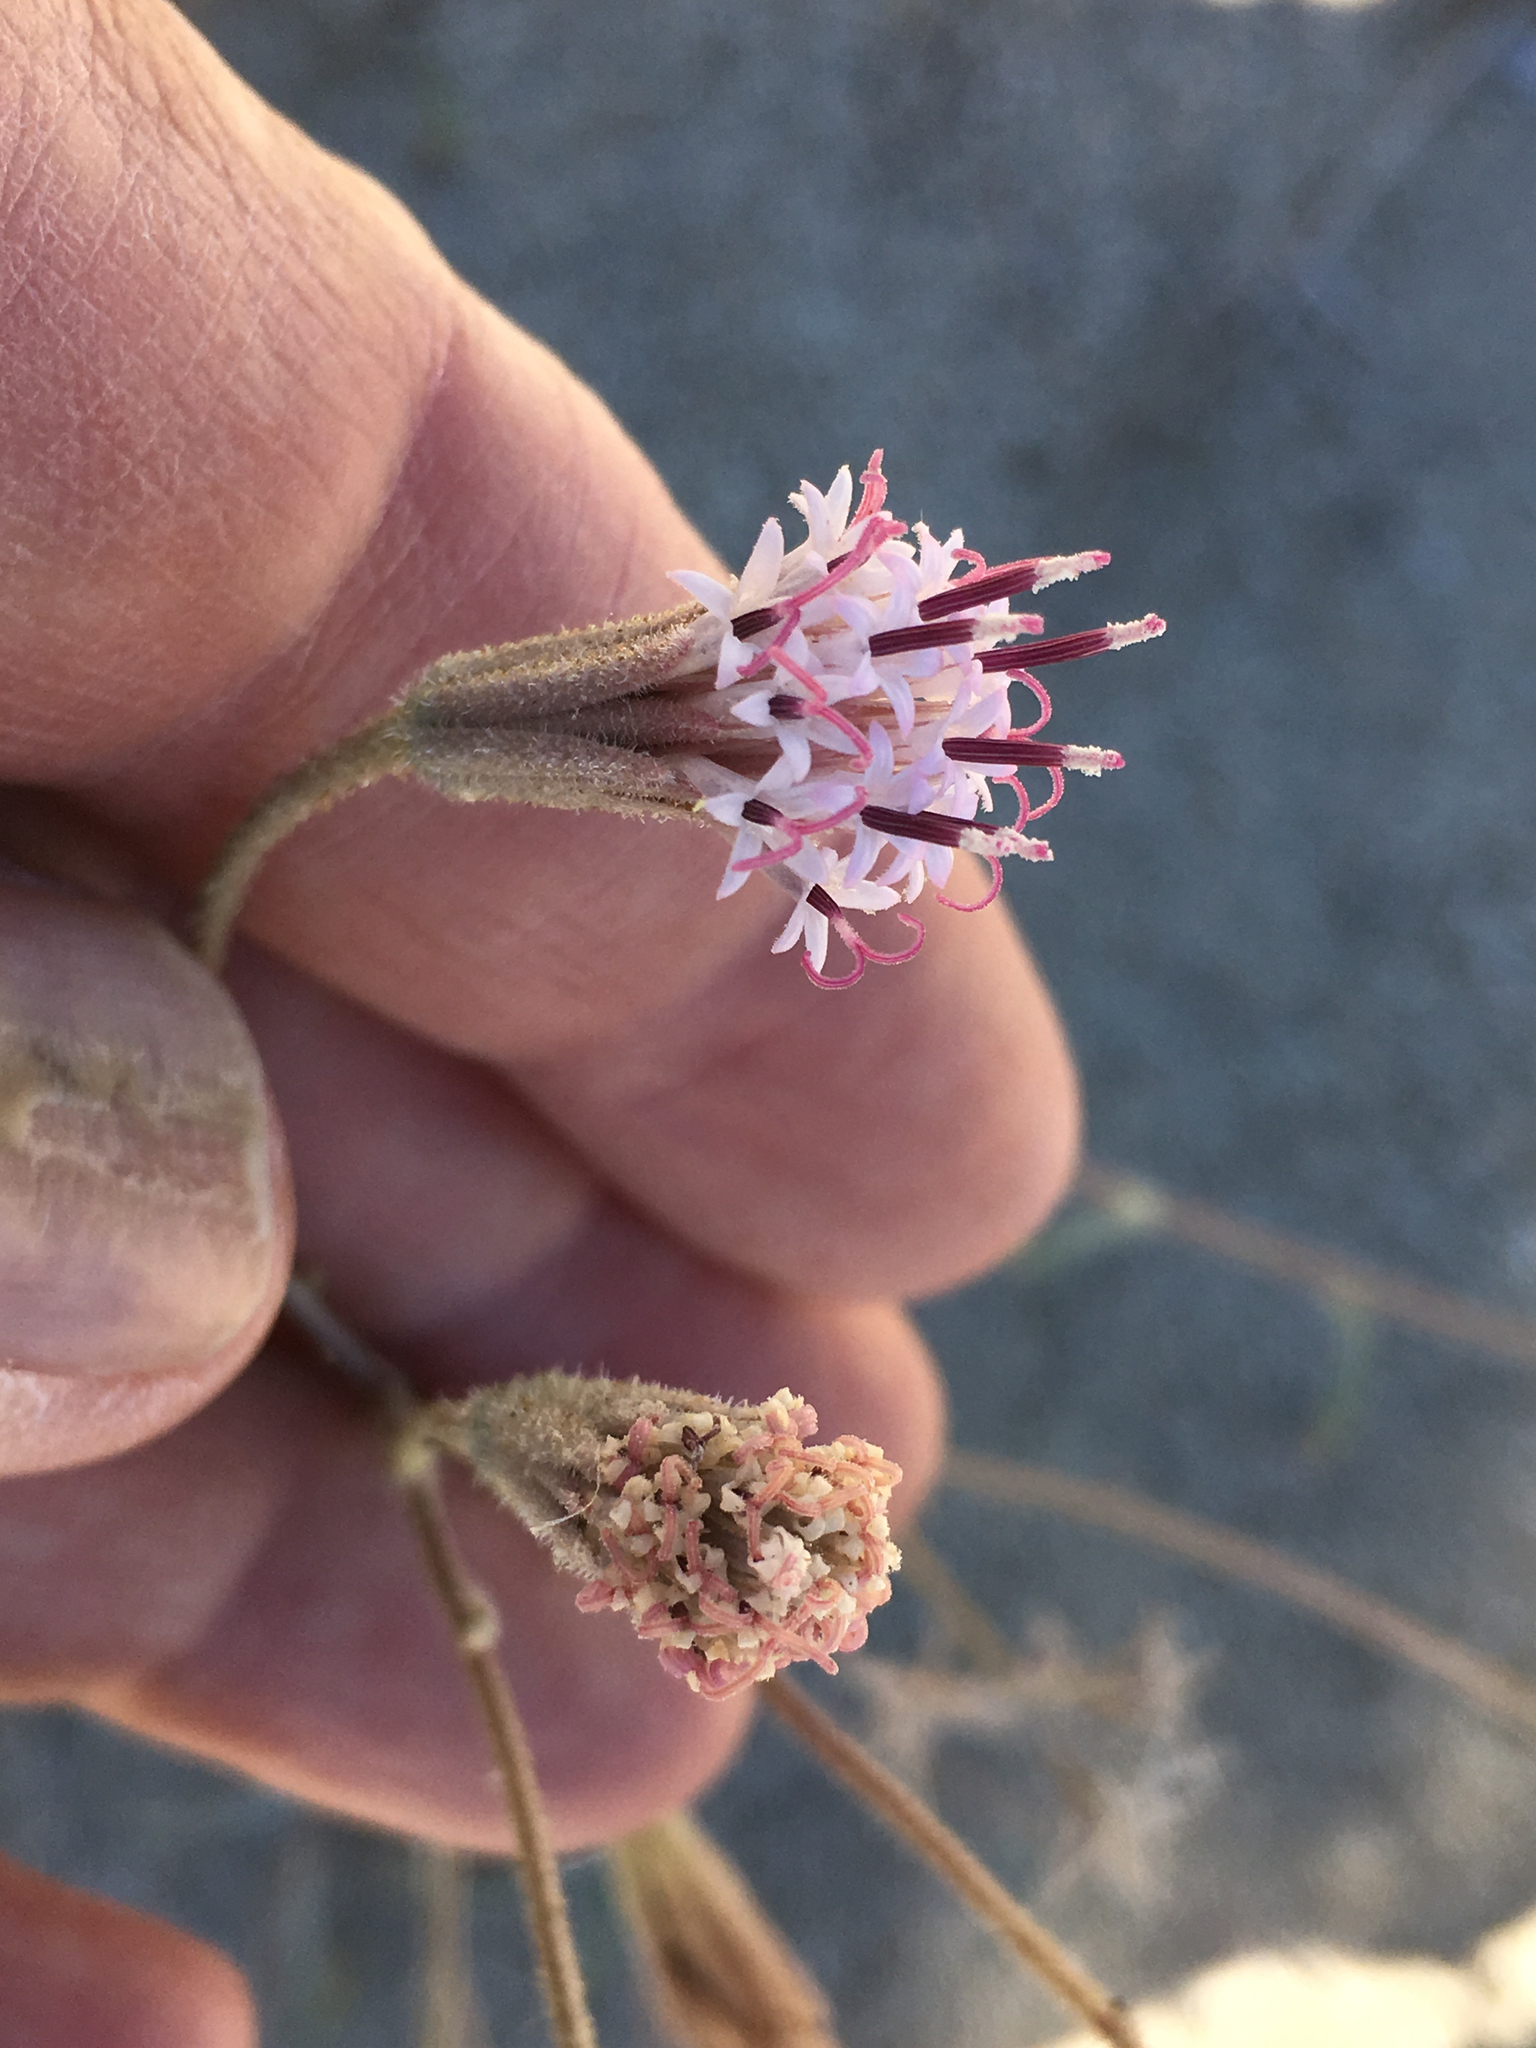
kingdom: Plantae
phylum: Tracheophyta
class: Magnoliopsida
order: Asterales
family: Asteraceae
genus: Palafoxia
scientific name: Palafoxia arida
